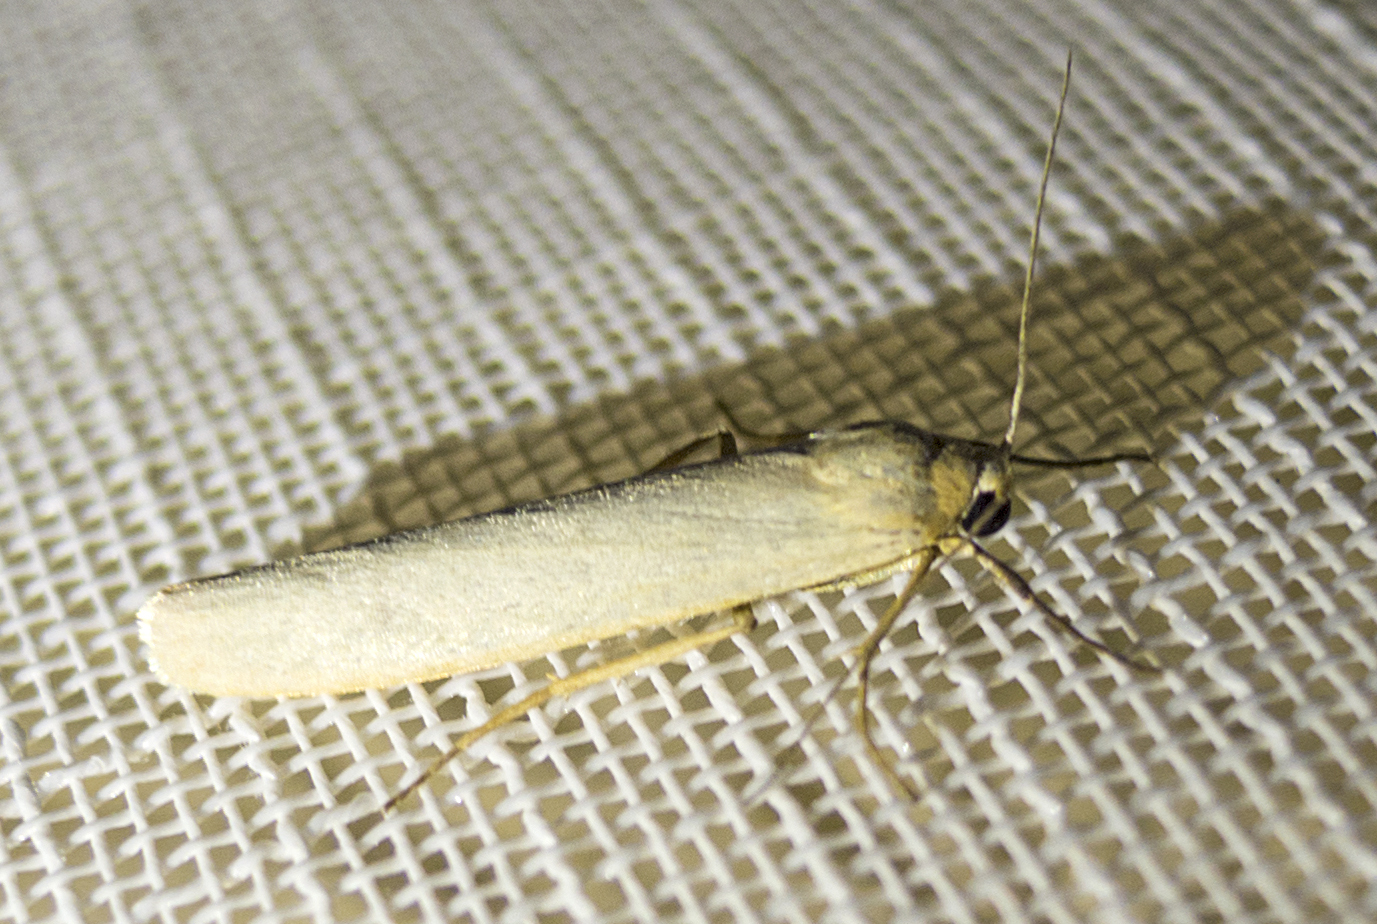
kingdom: Animalia
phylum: Arthropoda
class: Insecta
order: Lepidoptera
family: Erebidae
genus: Eilema
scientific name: Eilema caniola
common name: Hoary footman
